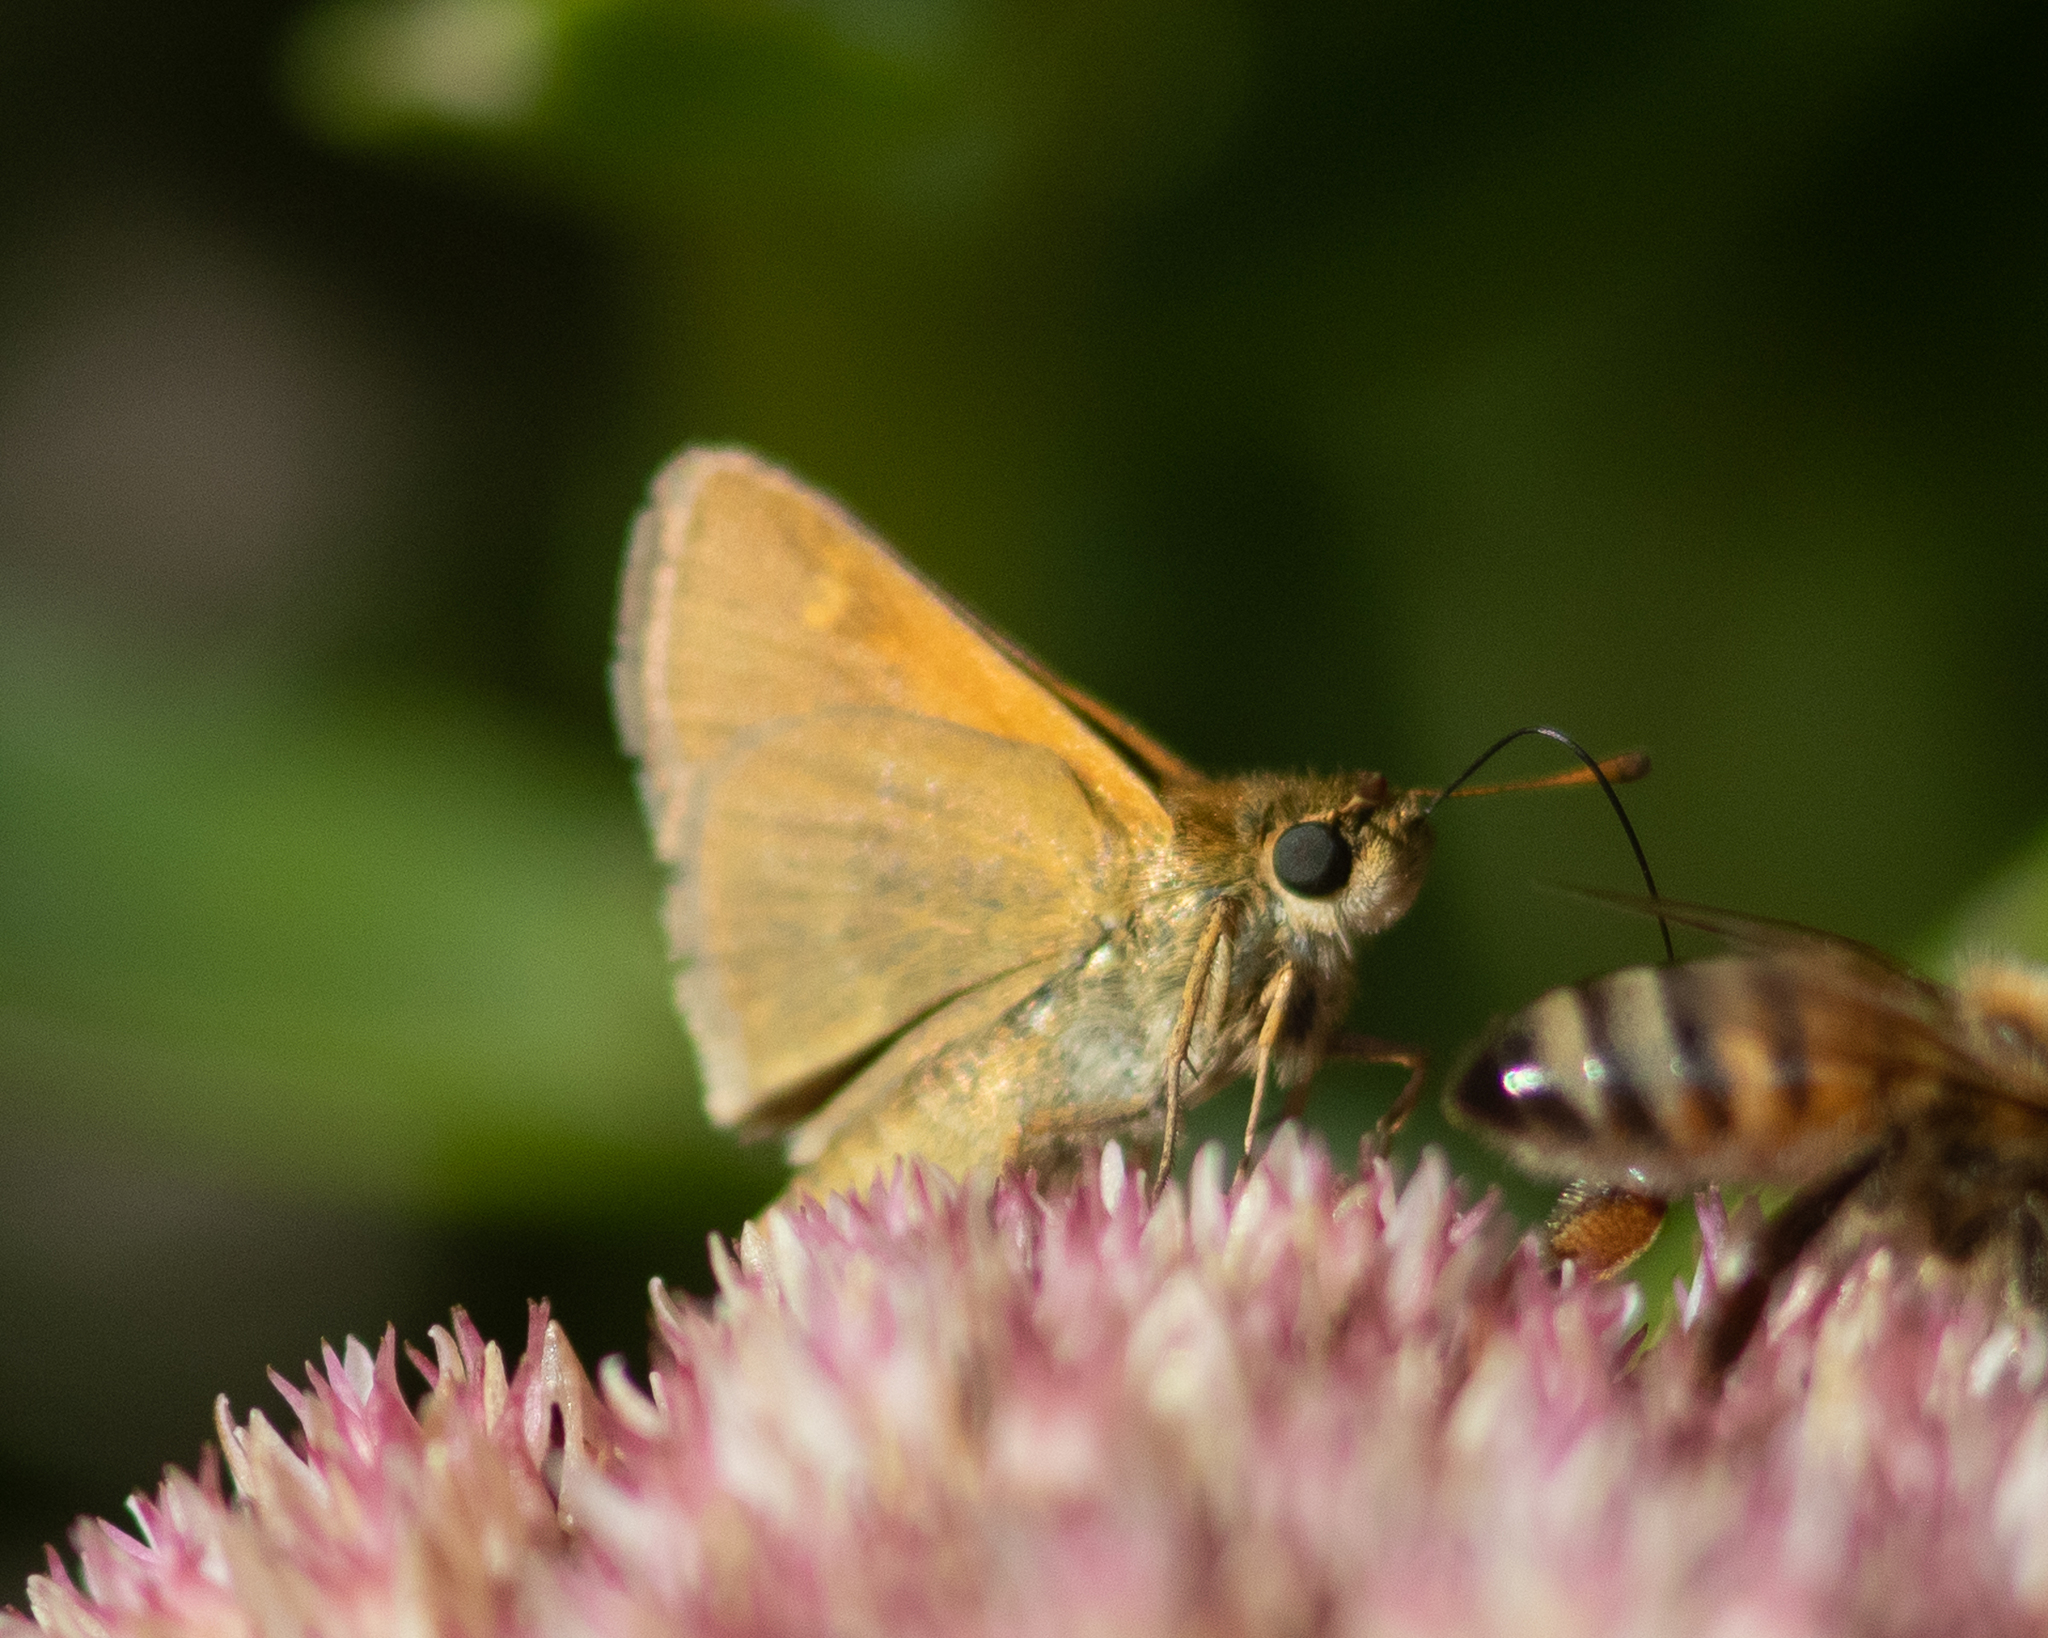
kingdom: Animalia
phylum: Arthropoda
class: Insecta
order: Lepidoptera
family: Hesperiidae
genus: Polites
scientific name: Polites themistocles
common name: Tawny-edged skipper
